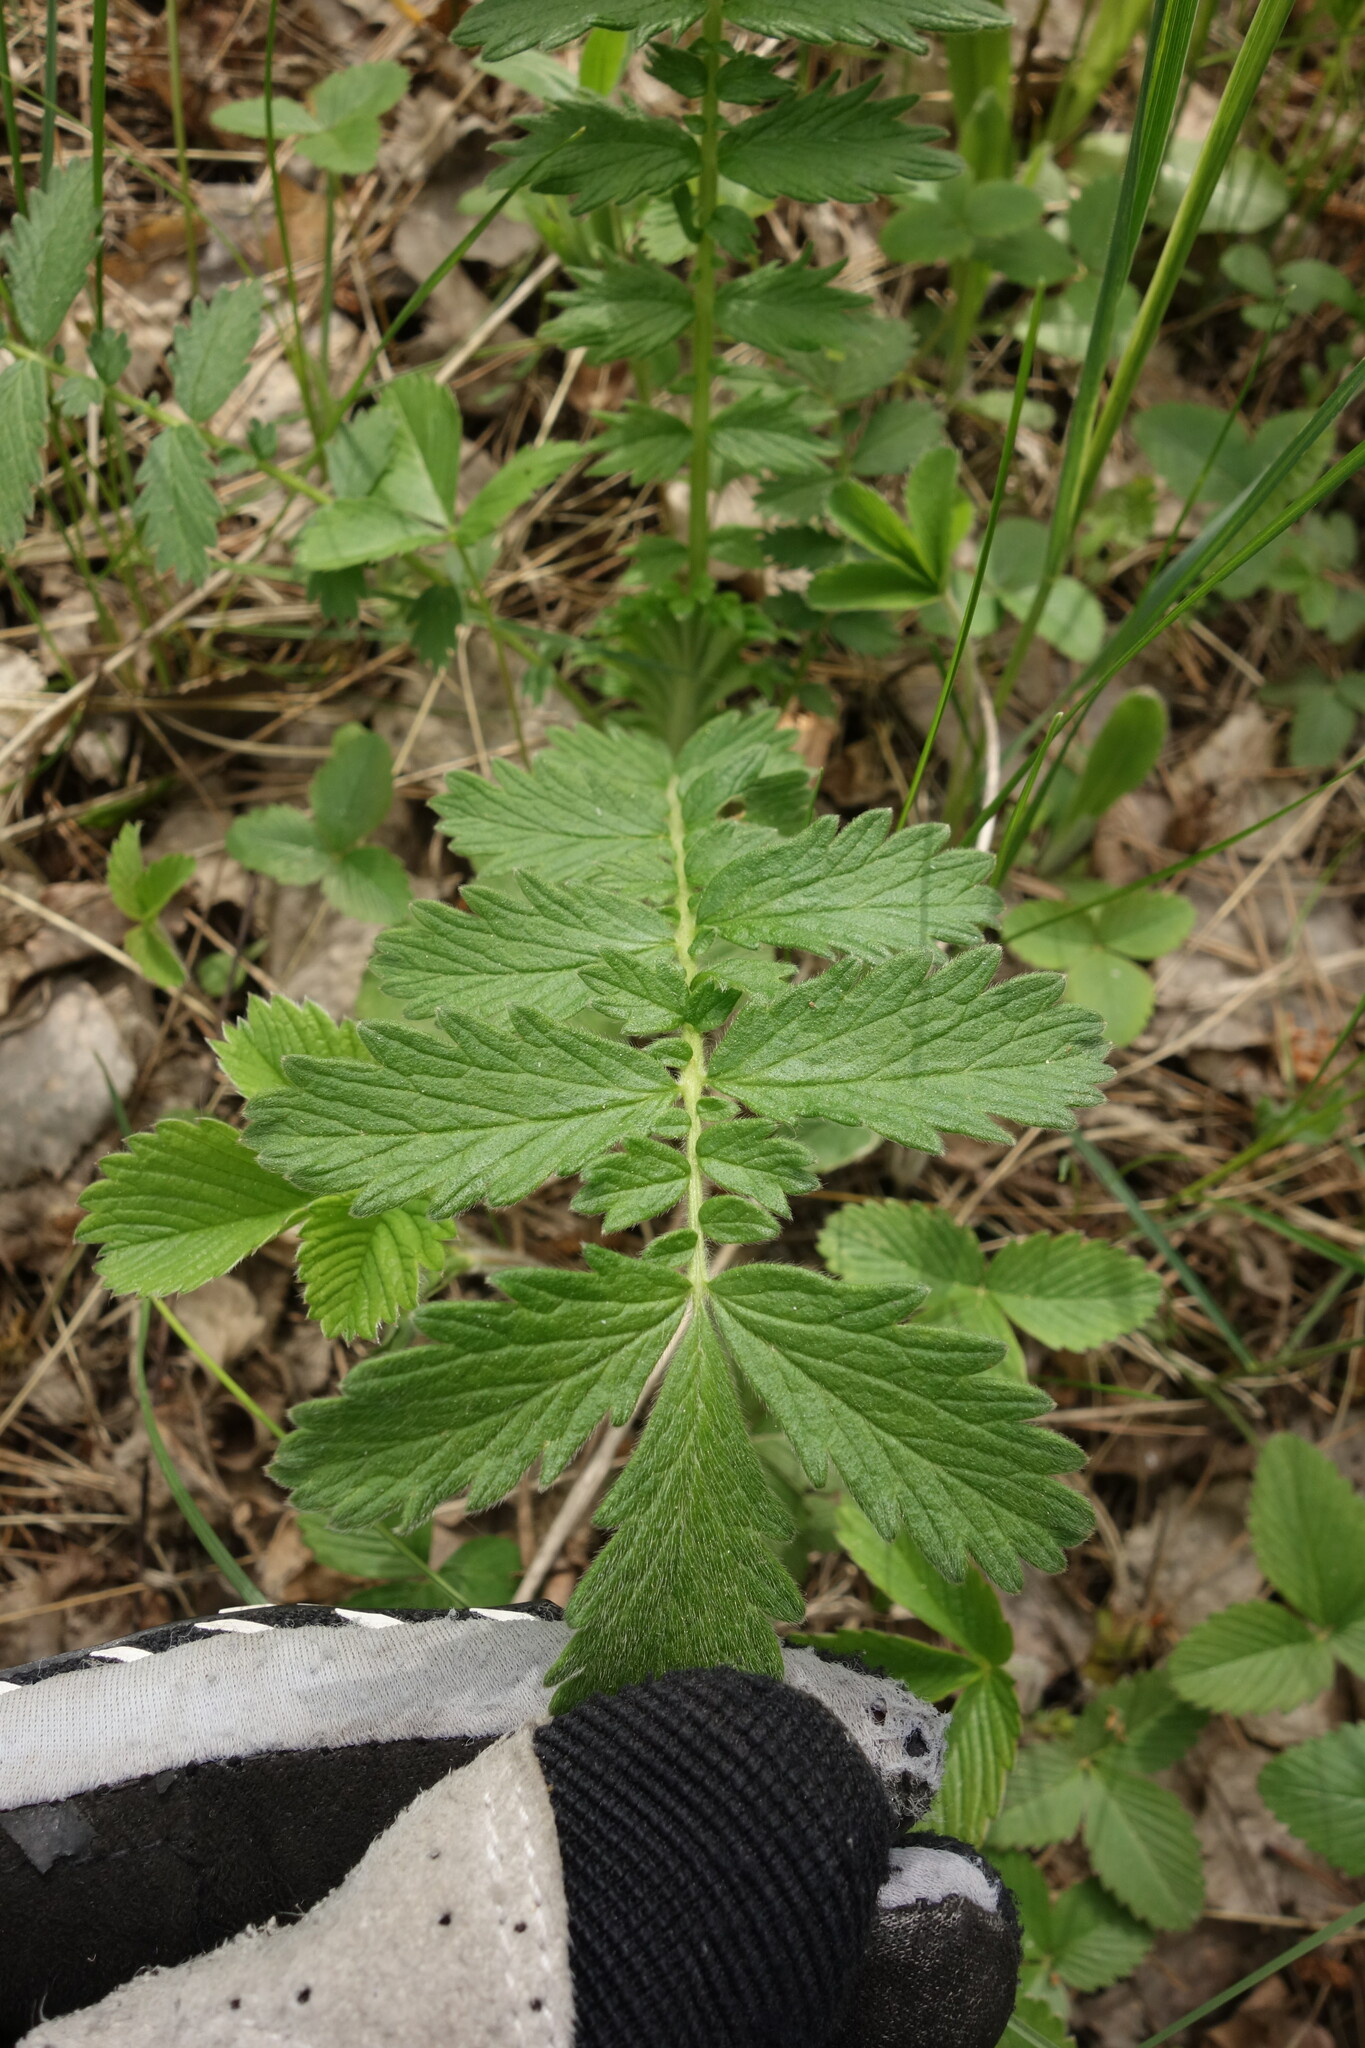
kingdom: Plantae
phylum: Tracheophyta
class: Magnoliopsida
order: Rosales
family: Rosaceae
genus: Agrimonia
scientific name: Agrimonia eupatoria
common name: Agrimony
